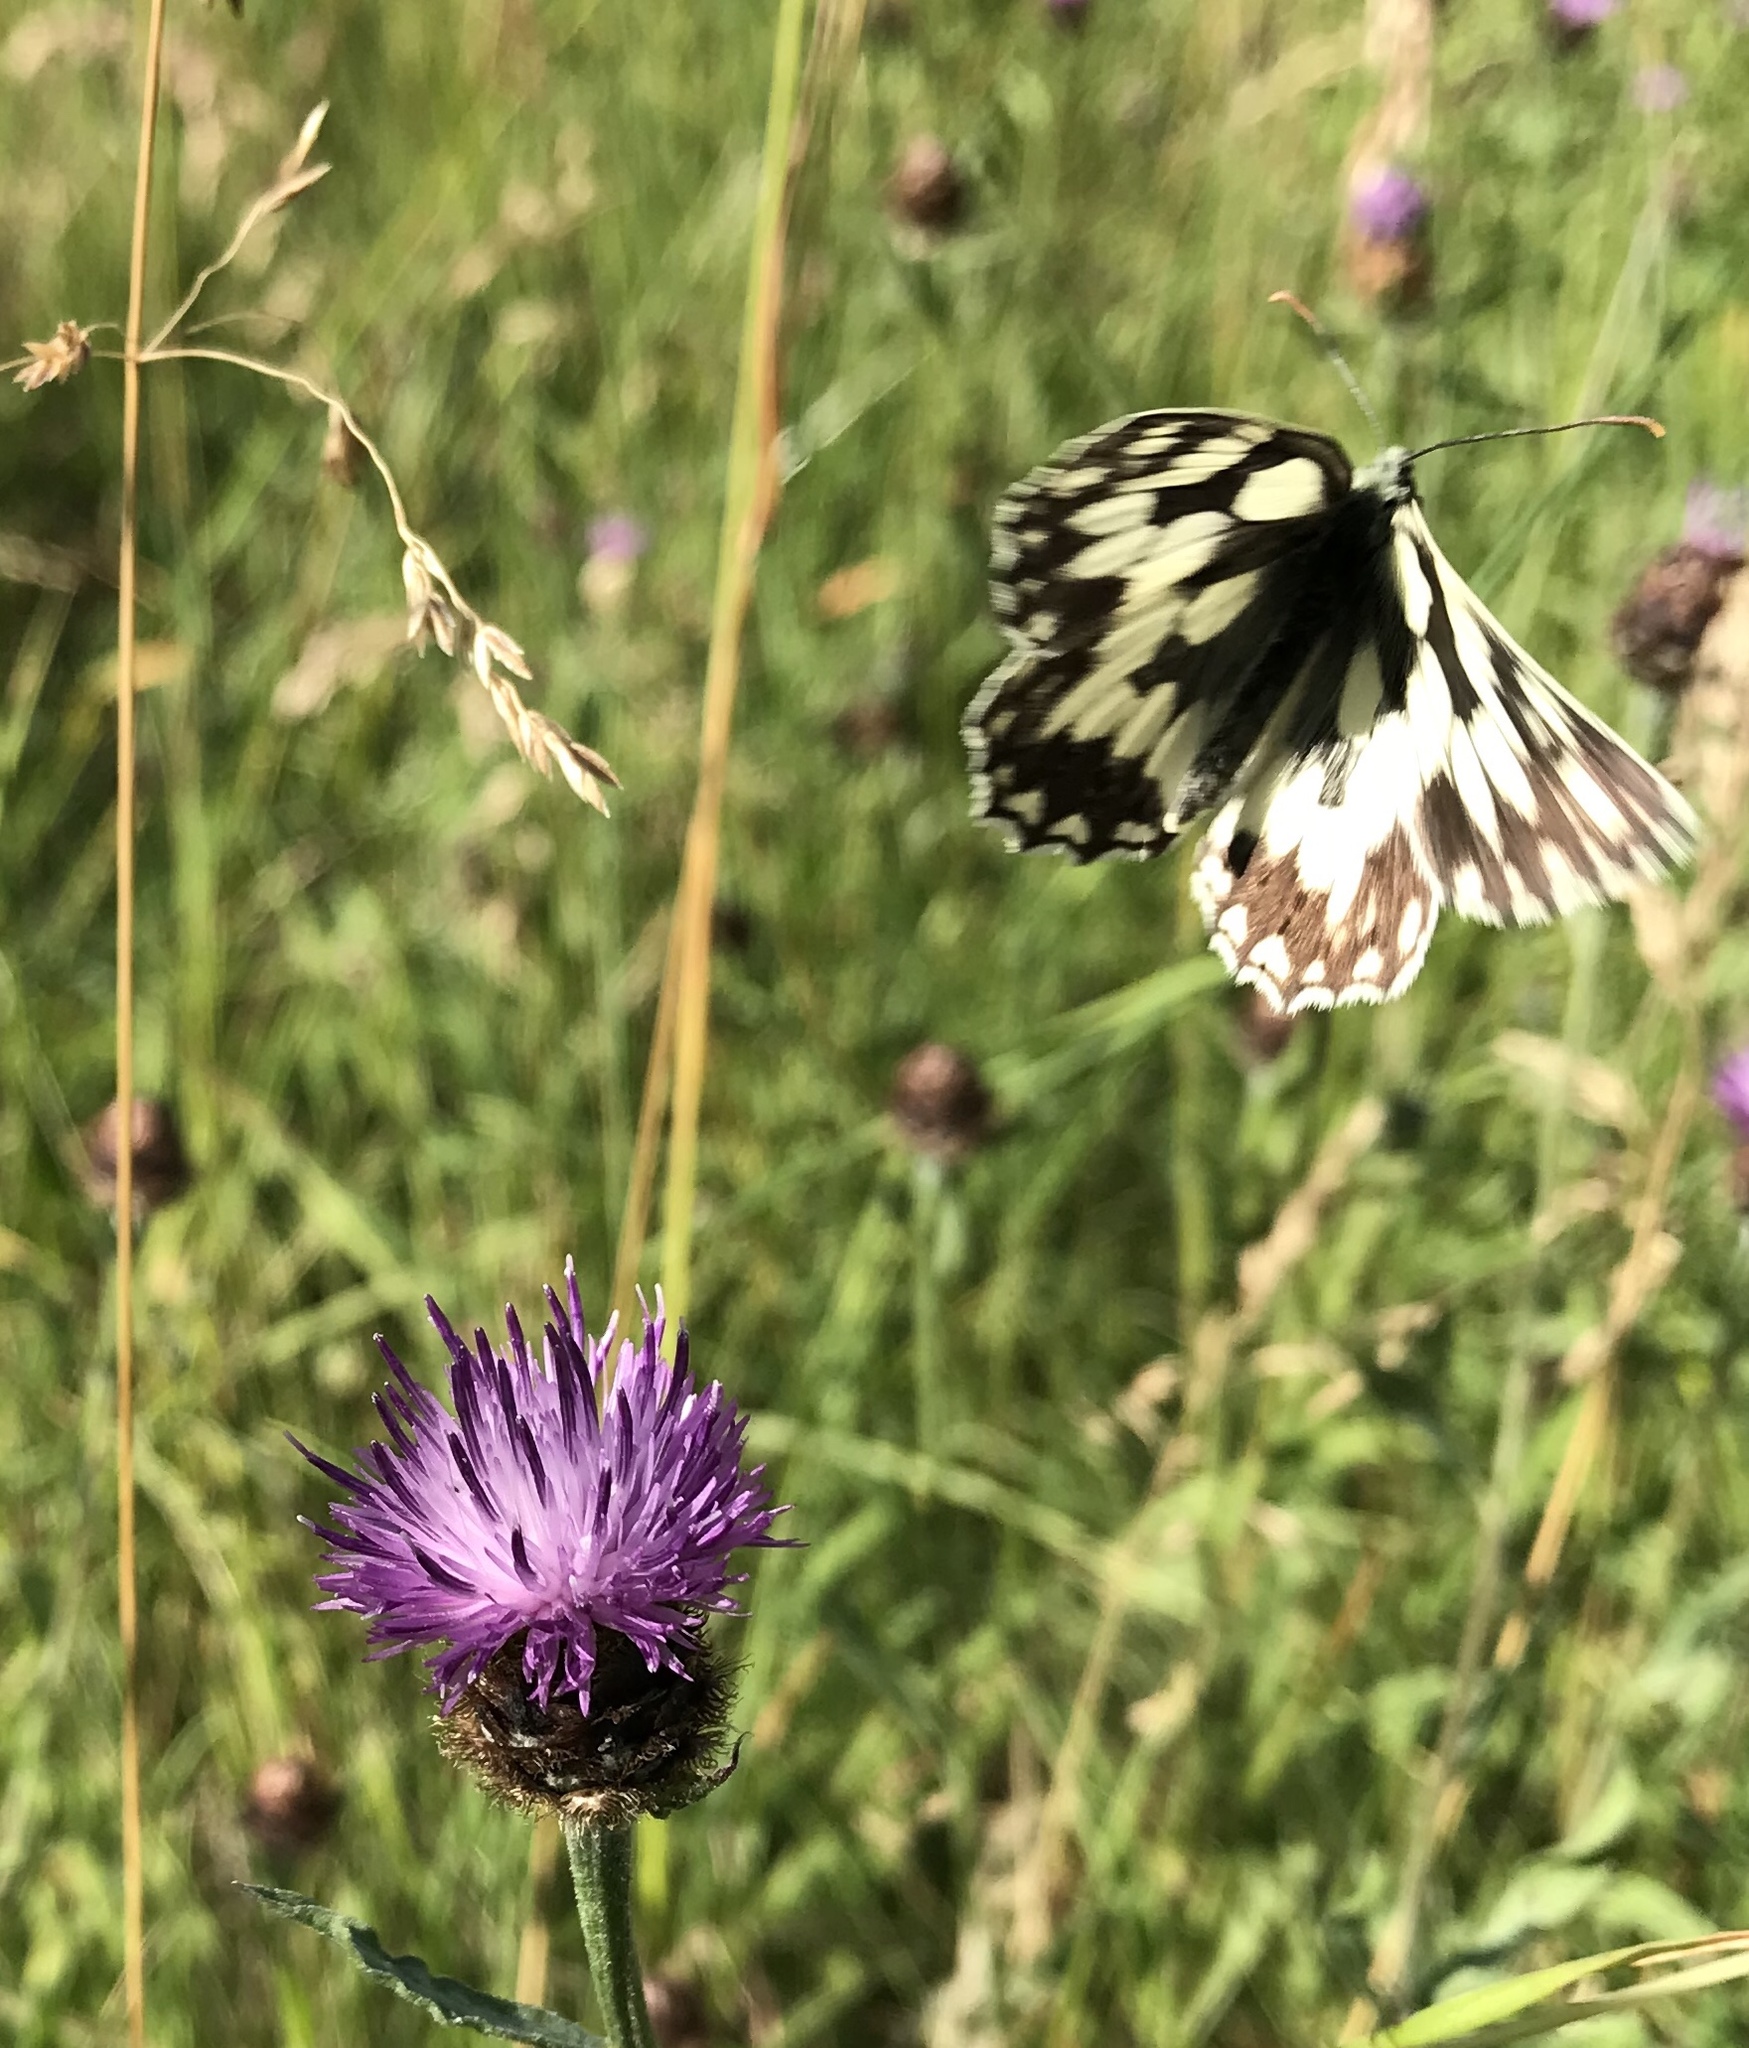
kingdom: Animalia
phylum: Arthropoda
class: Insecta
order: Lepidoptera
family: Nymphalidae
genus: Melanargia
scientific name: Melanargia galathea
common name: Marbled white
